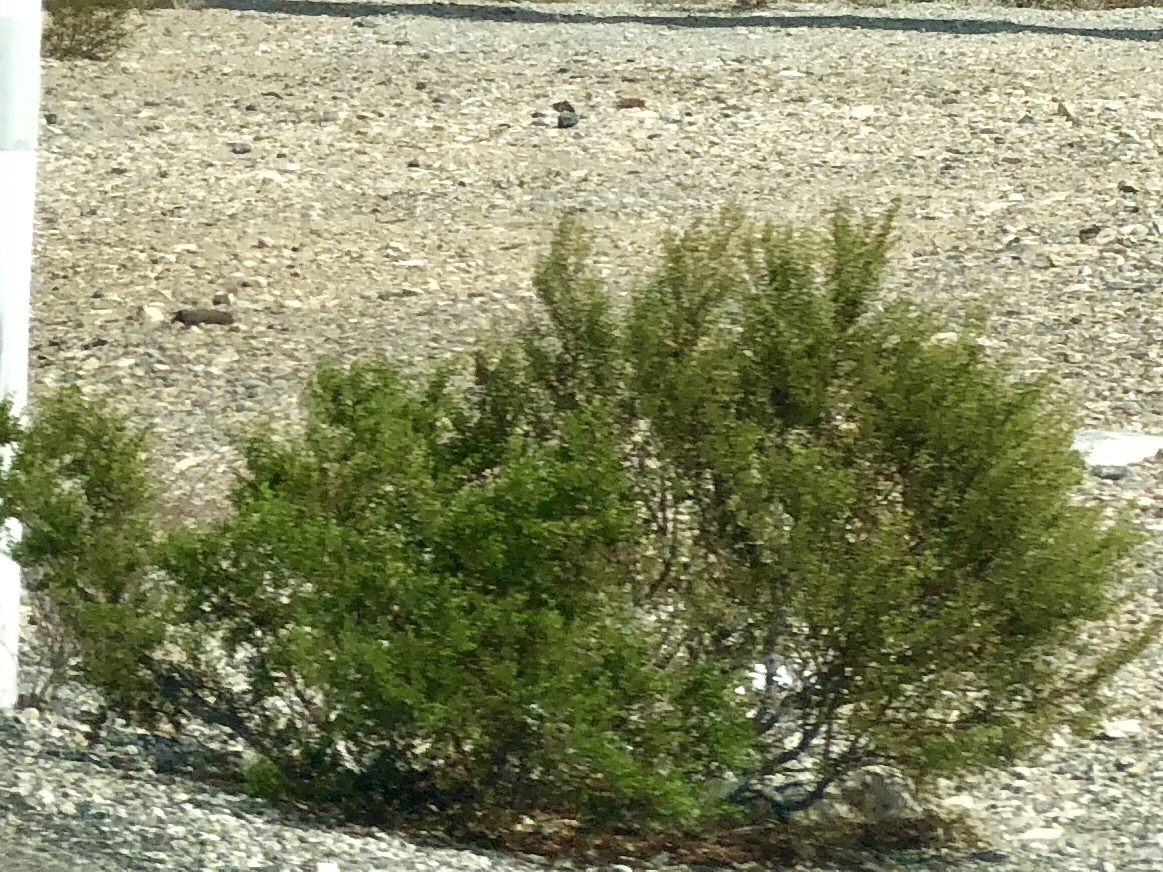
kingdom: Plantae
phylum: Tracheophyta
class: Magnoliopsida
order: Zygophyllales
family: Zygophyllaceae
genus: Larrea
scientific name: Larrea tridentata
